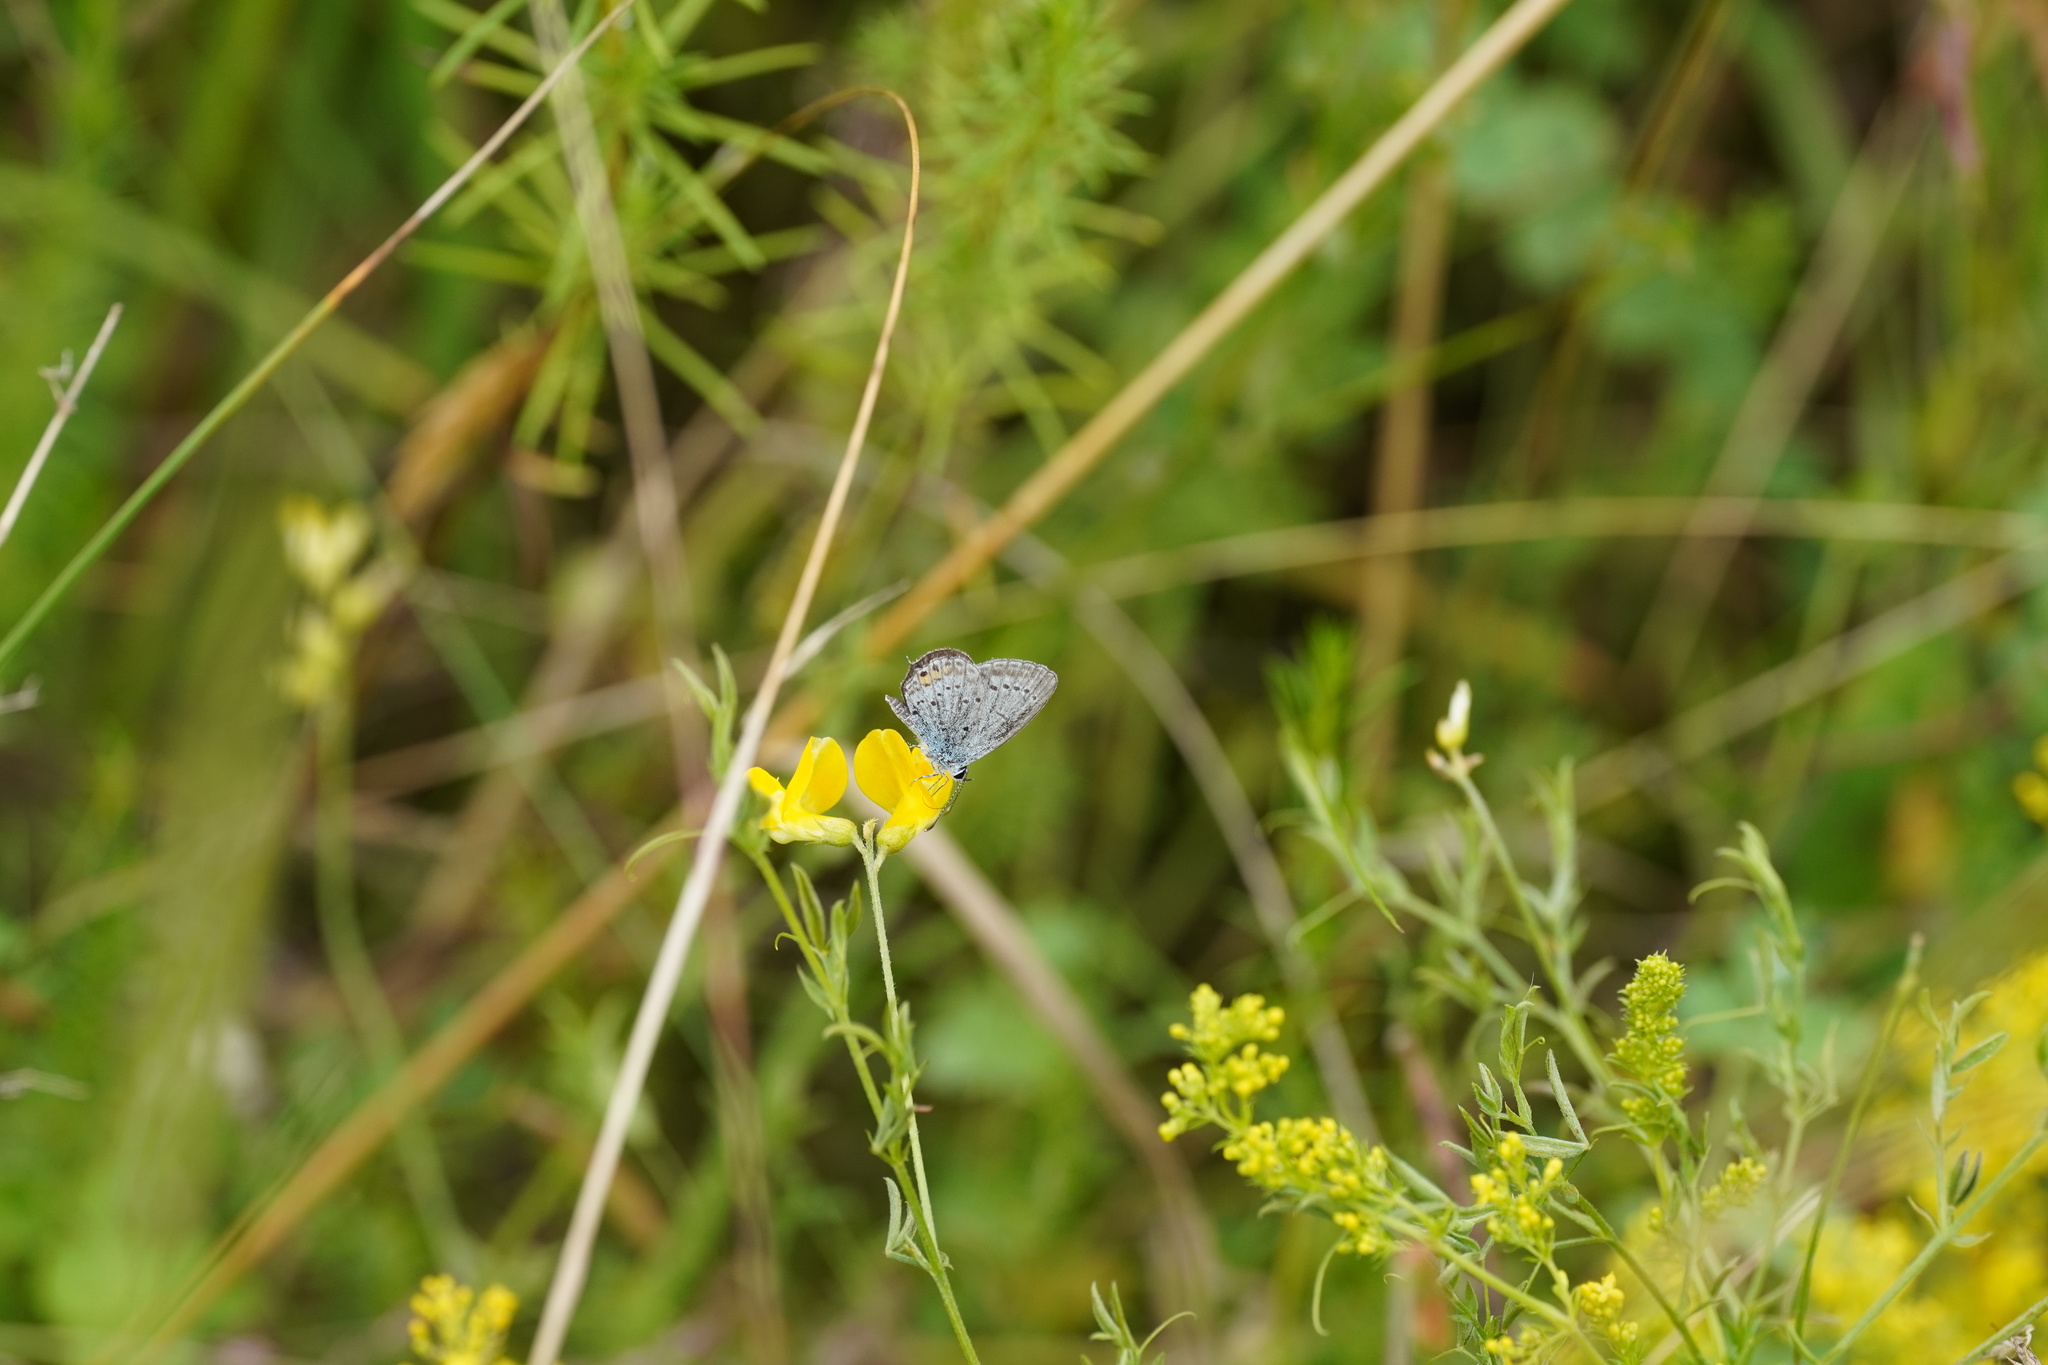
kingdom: Animalia
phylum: Arthropoda
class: Insecta
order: Lepidoptera
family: Lycaenidae
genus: Elkalyce
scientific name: Elkalyce argiades
